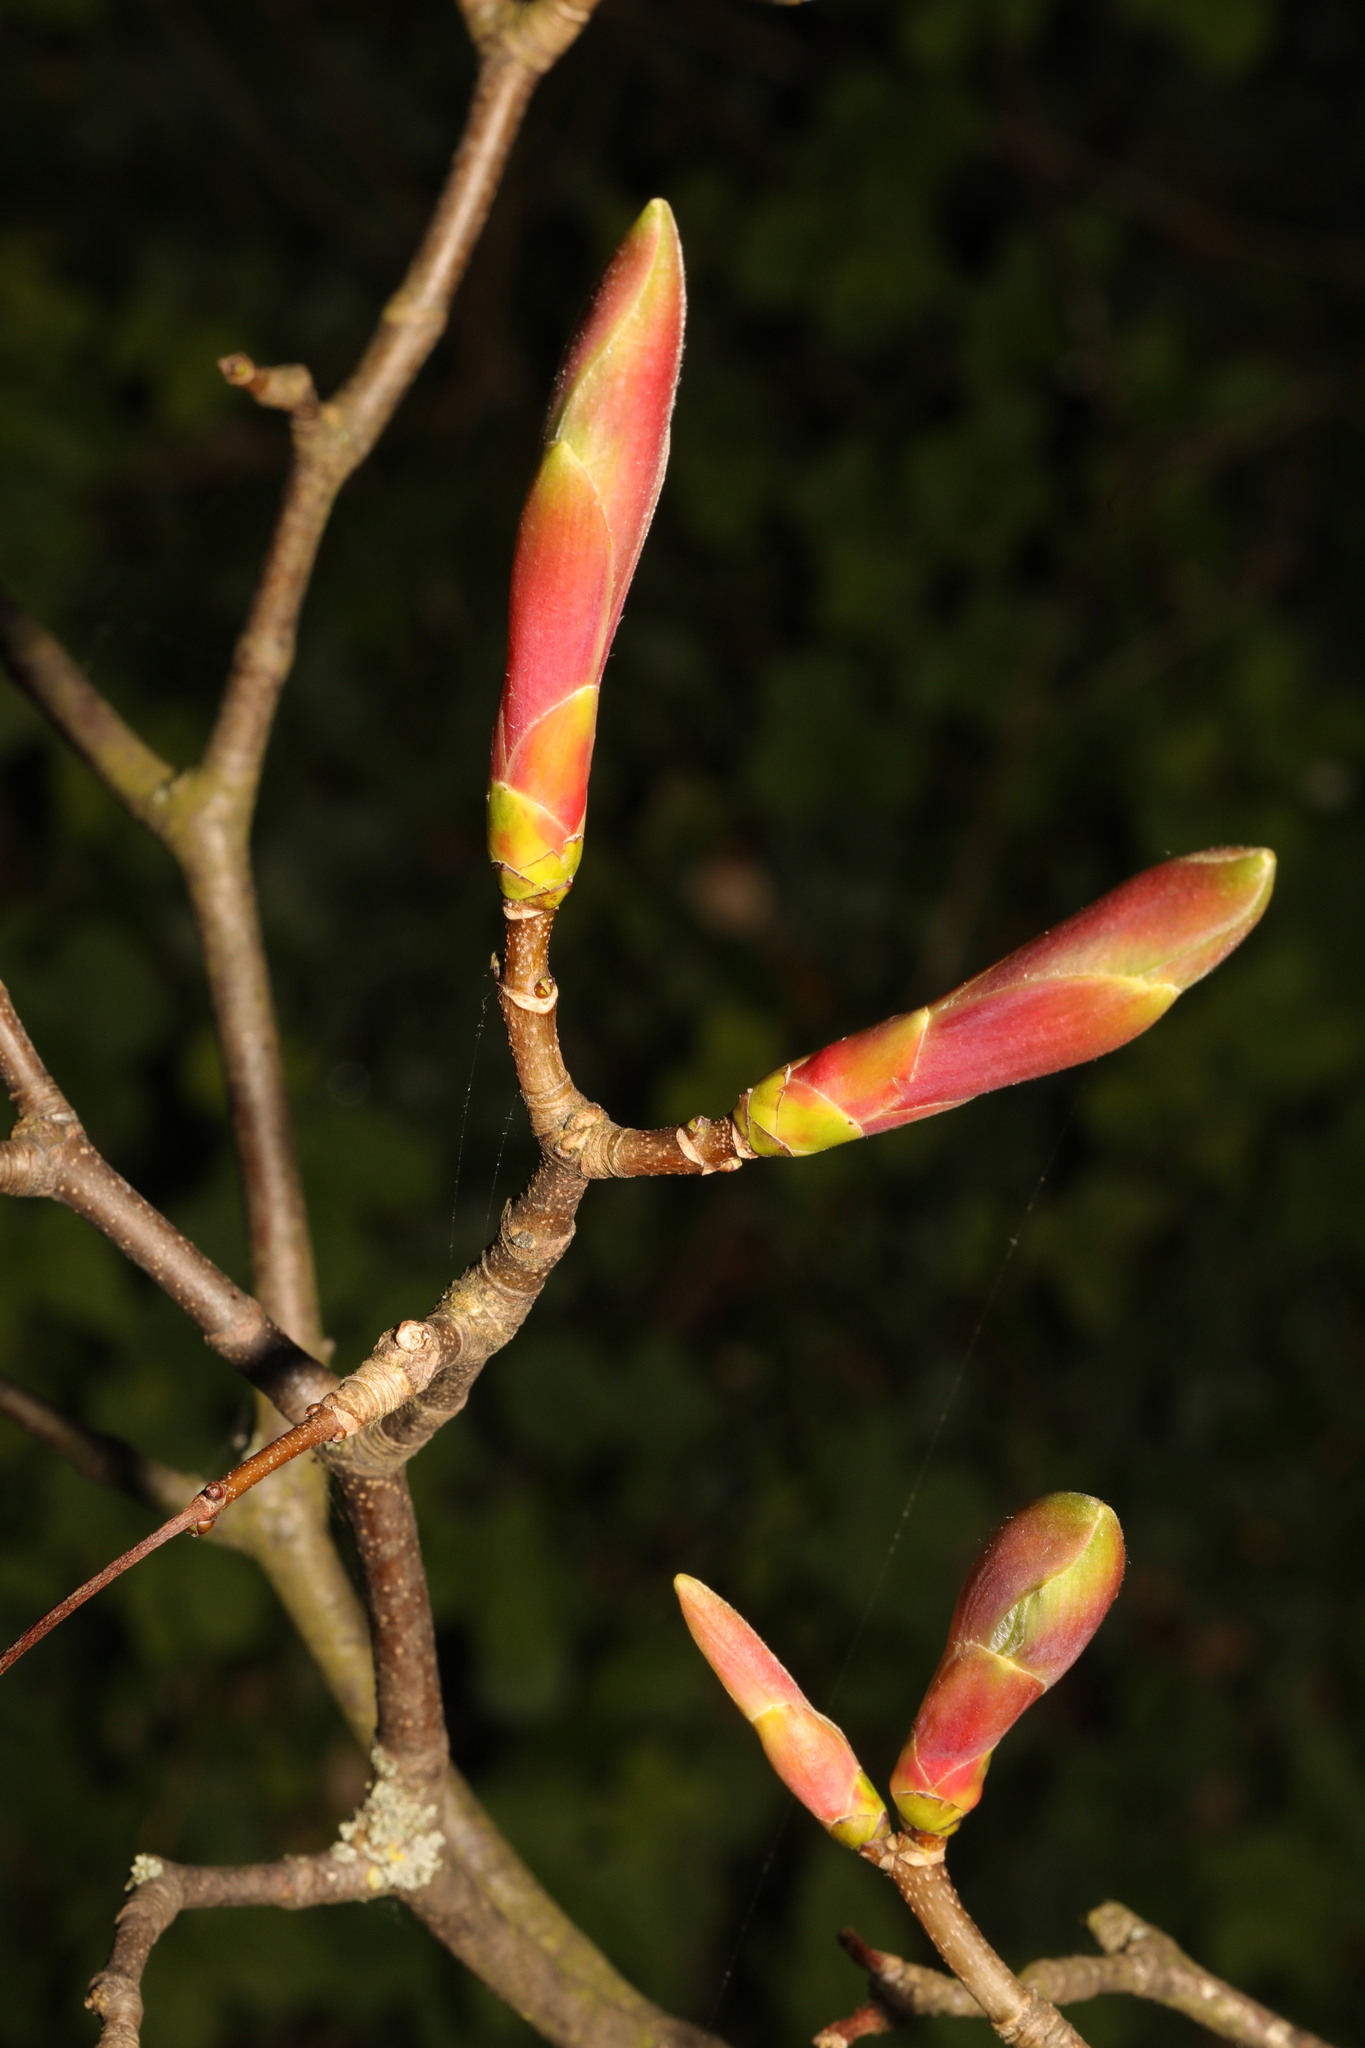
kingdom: Plantae
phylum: Tracheophyta
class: Magnoliopsida
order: Sapindales
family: Sapindaceae
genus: Acer
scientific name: Acer pseudoplatanus
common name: Sycamore
